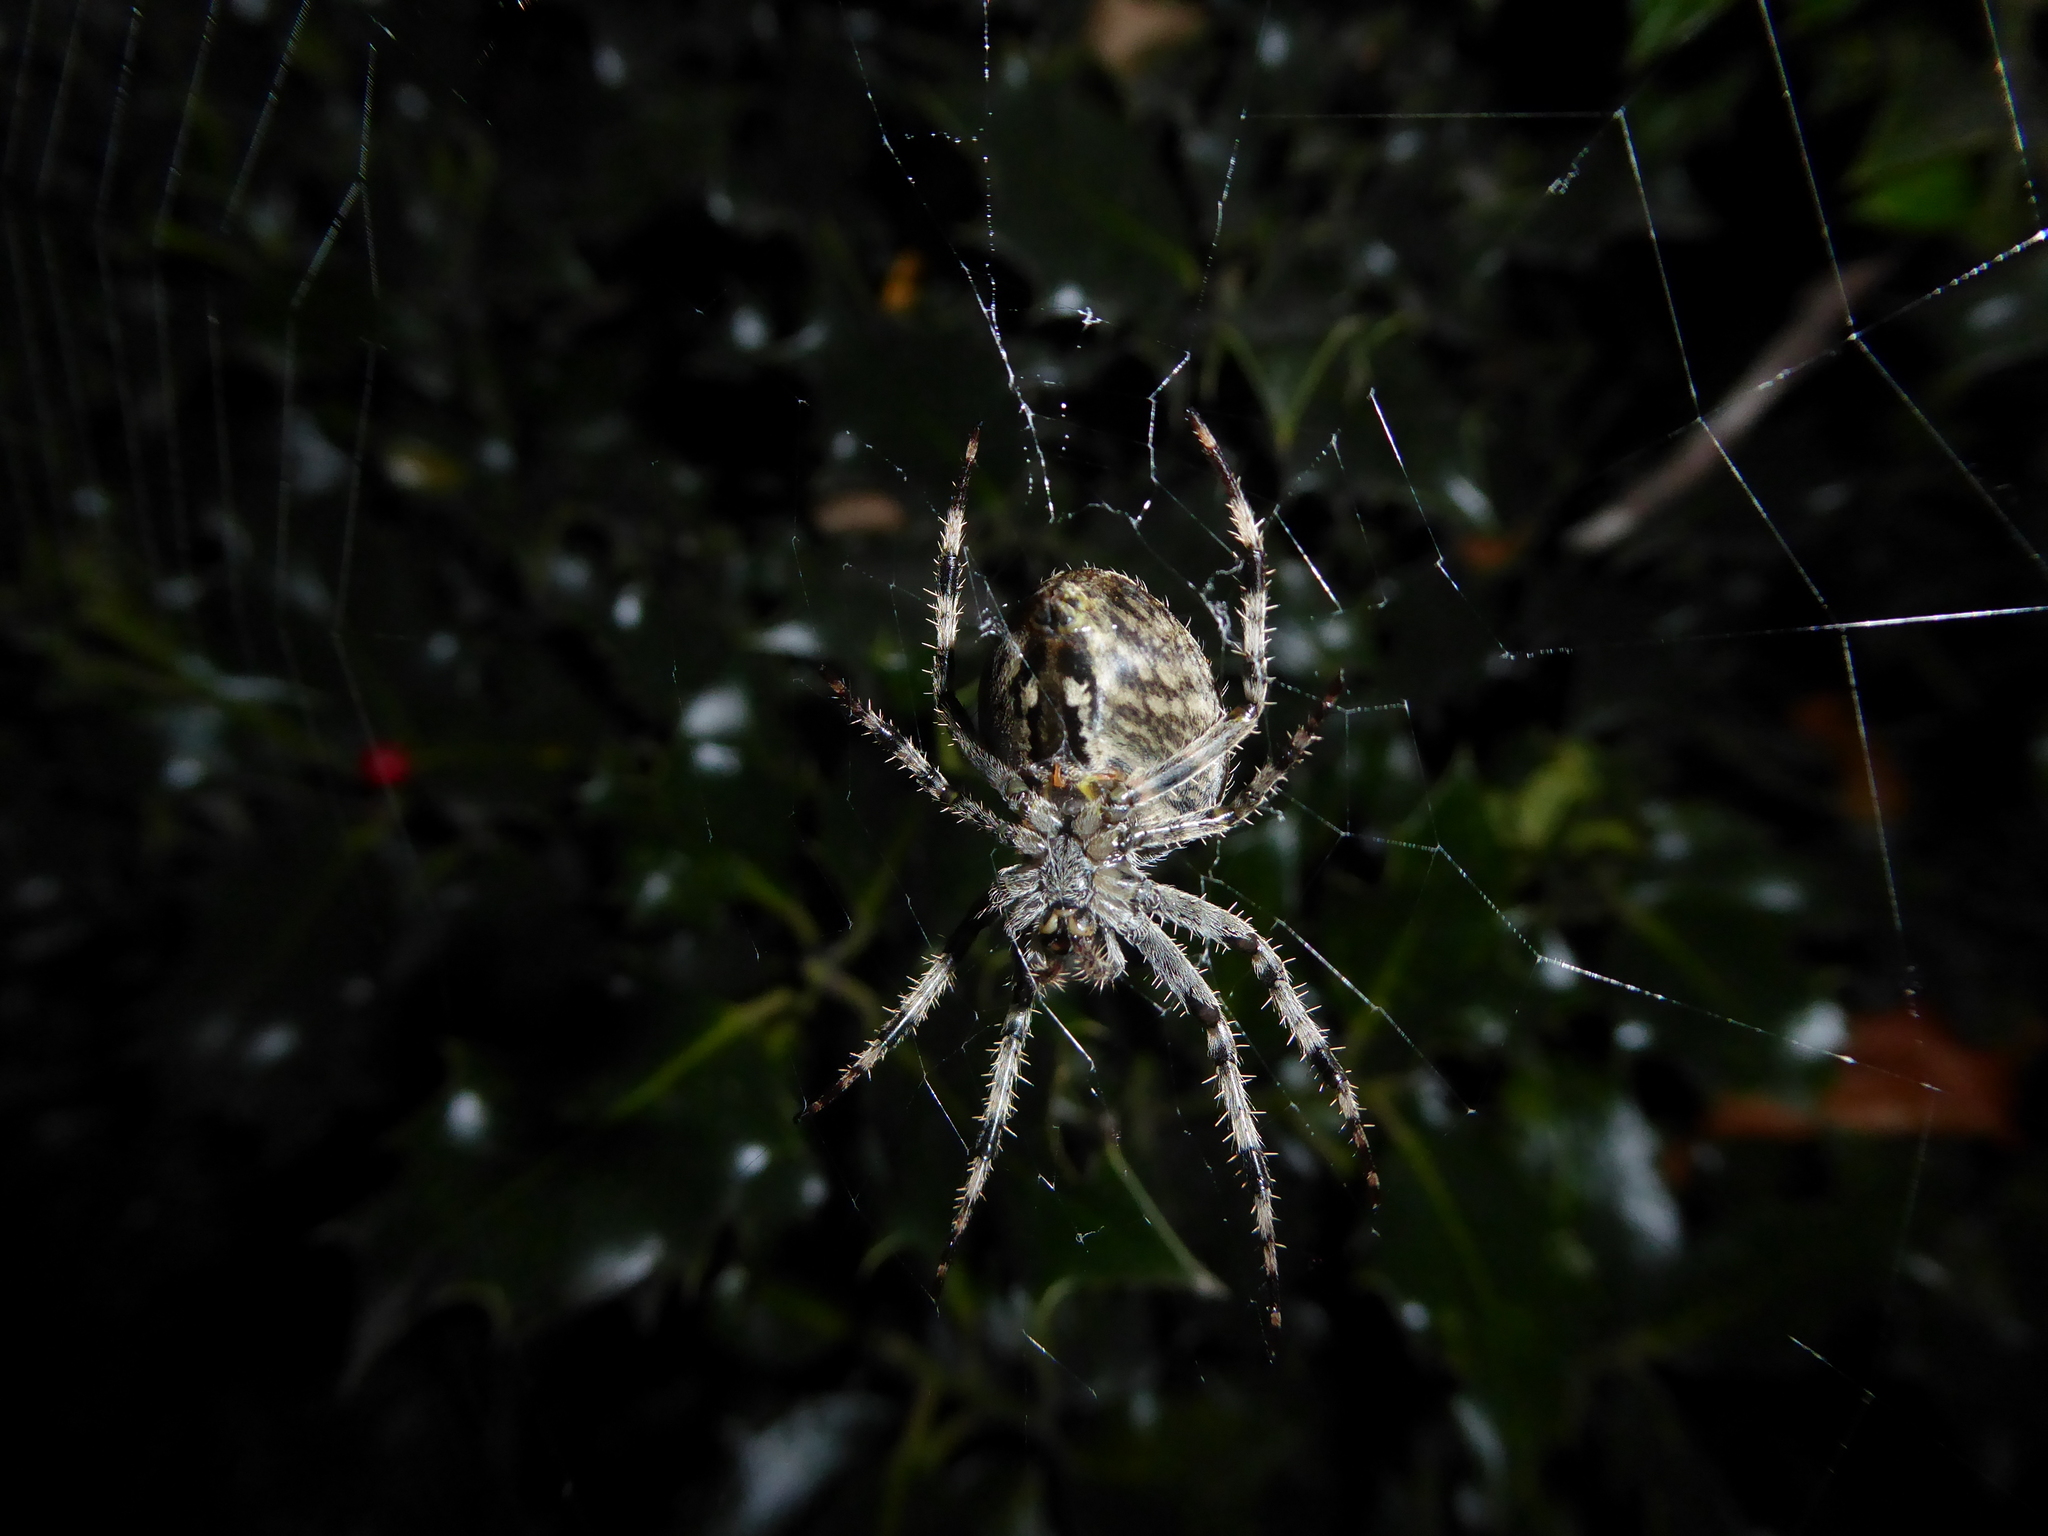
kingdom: Animalia
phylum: Arthropoda
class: Arachnida
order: Araneae
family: Araneidae
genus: Araneus
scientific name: Araneus diadematus
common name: Cross orbweaver
